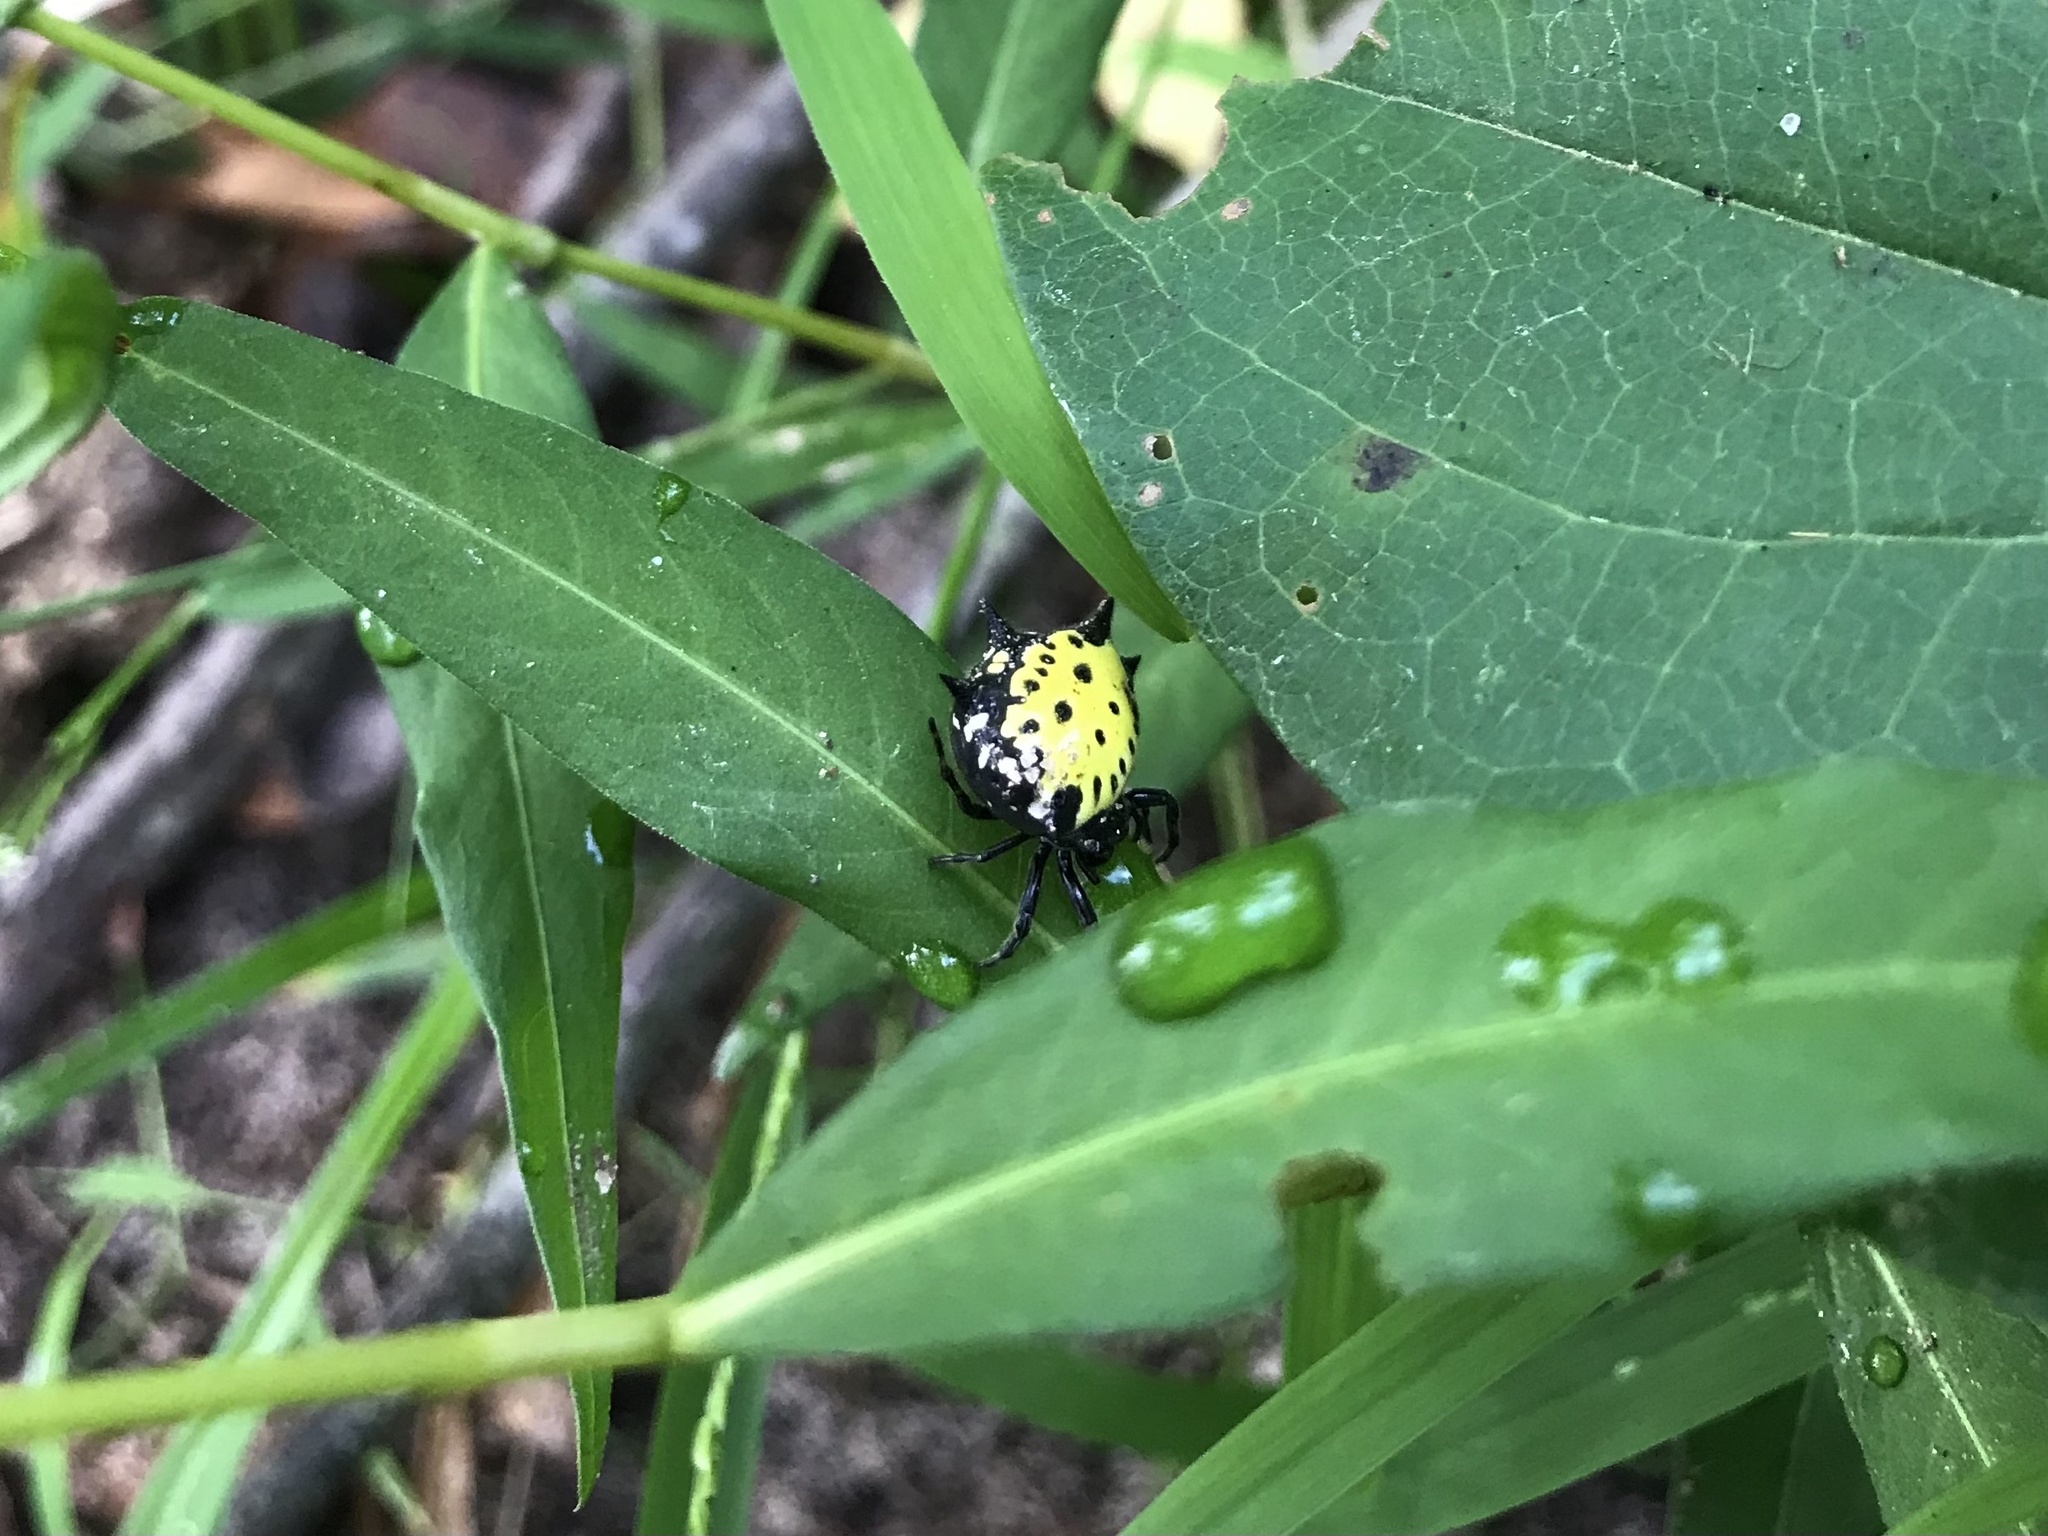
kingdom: Animalia
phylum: Arthropoda
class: Arachnida
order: Araneae
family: Araneidae
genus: Gasteracantha
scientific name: Gasteracantha cancriformis
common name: Orb weavers
